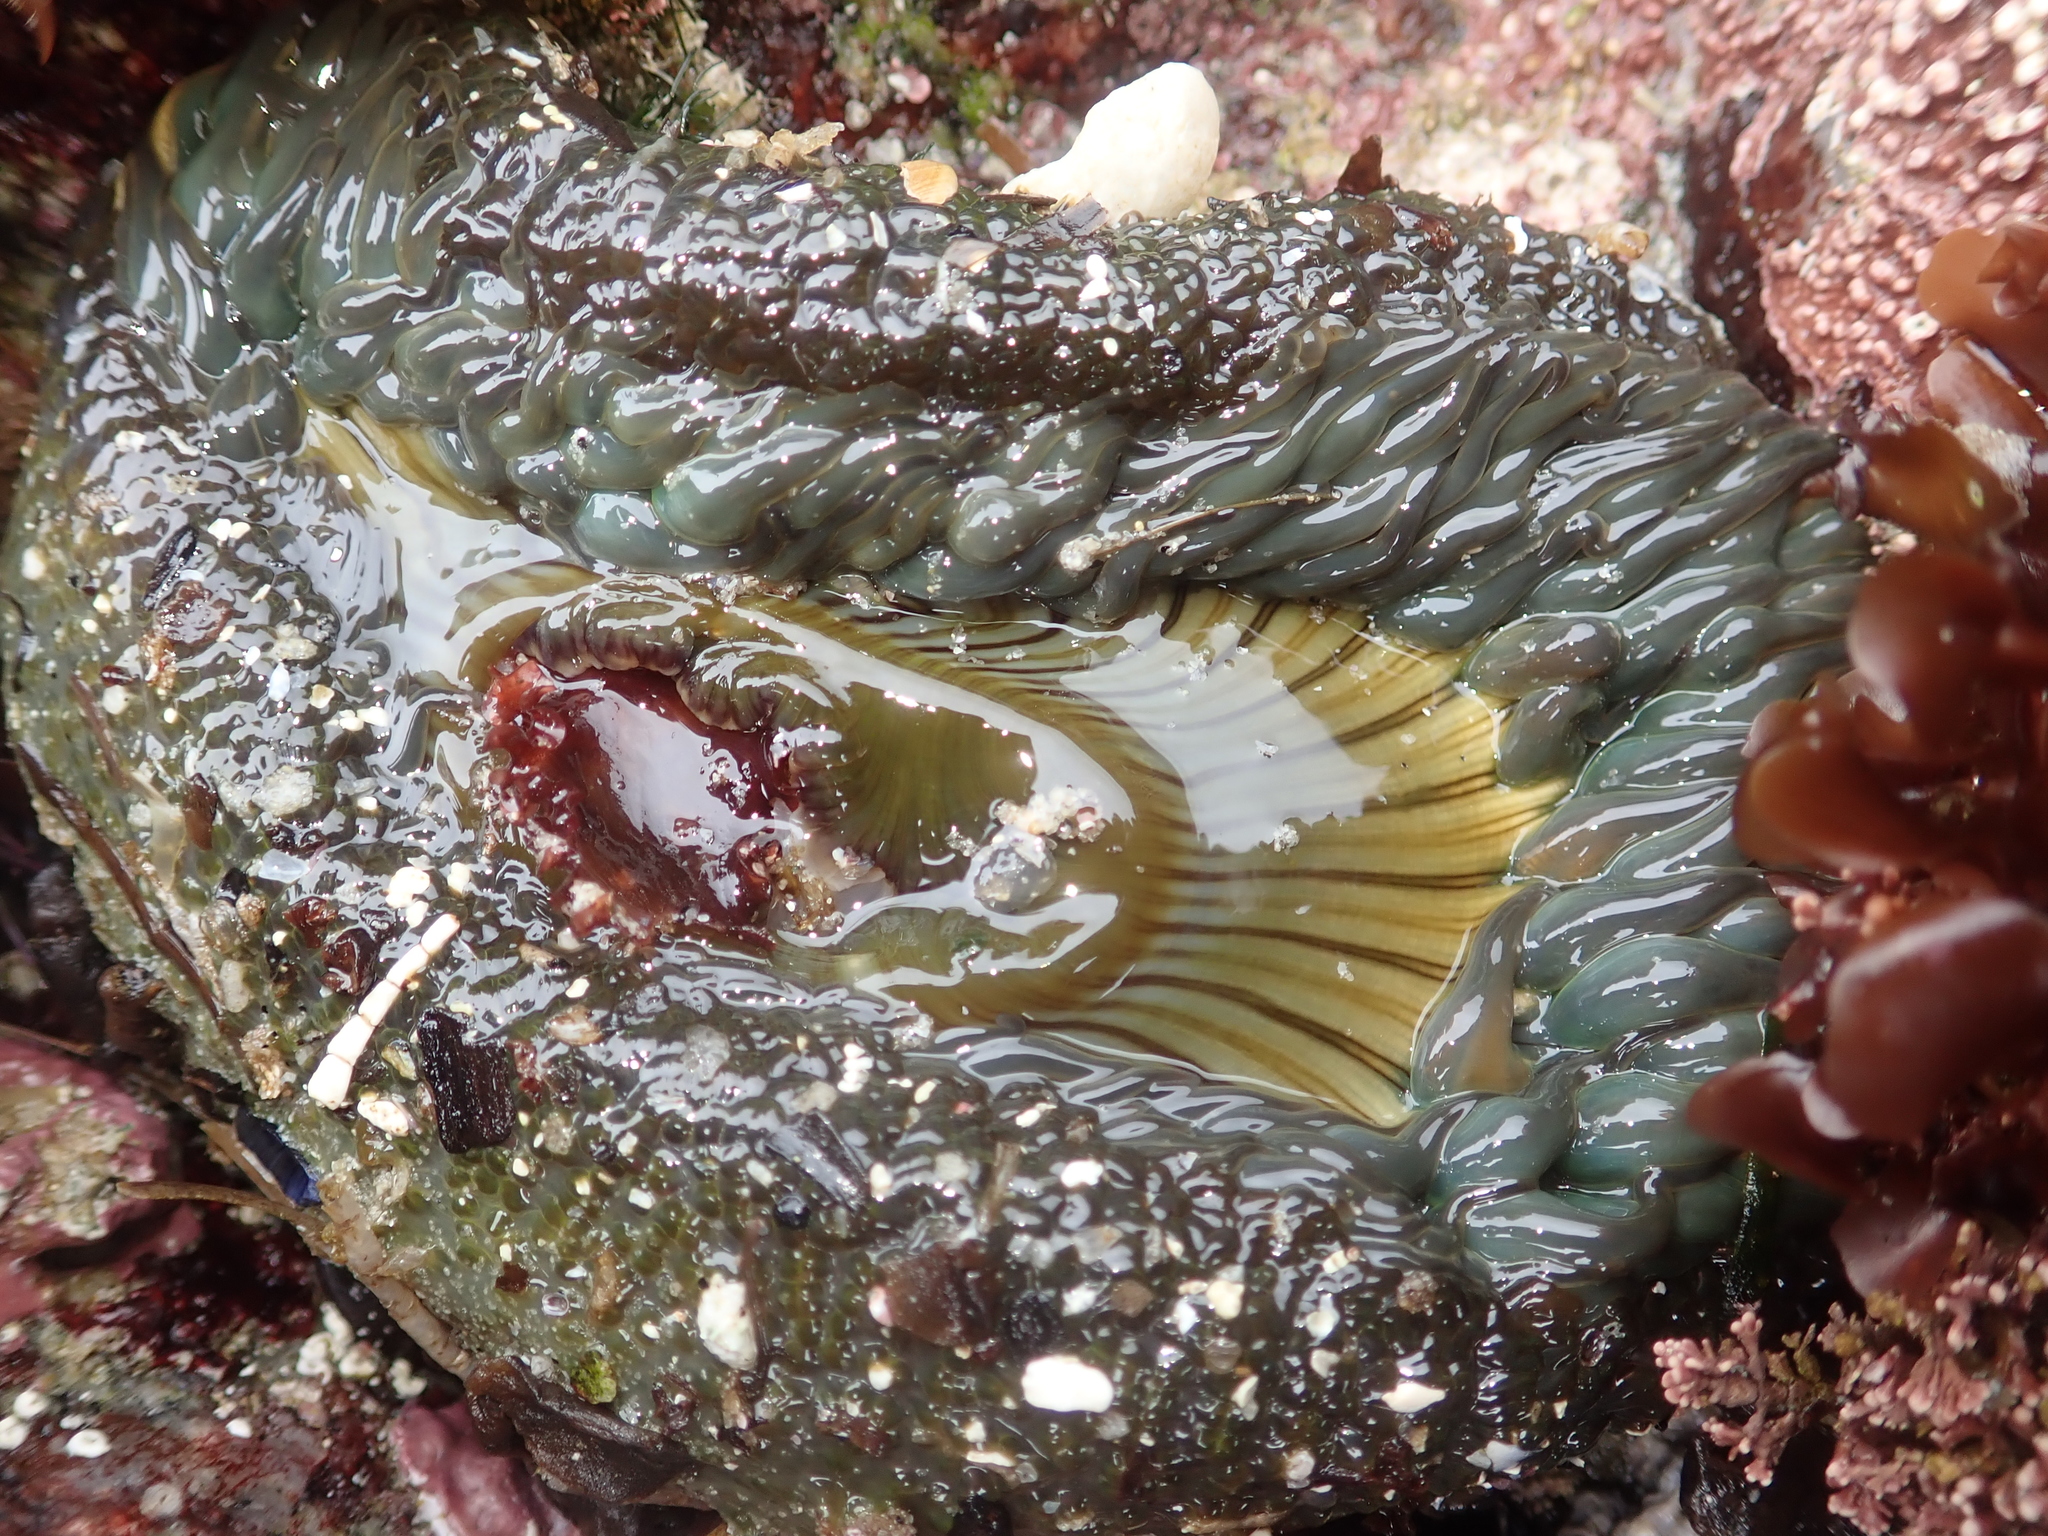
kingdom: Animalia
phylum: Cnidaria
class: Anthozoa
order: Actiniaria
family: Actiniidae
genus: Anthopleura
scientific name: Anthopleura sola
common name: Sun anemone
